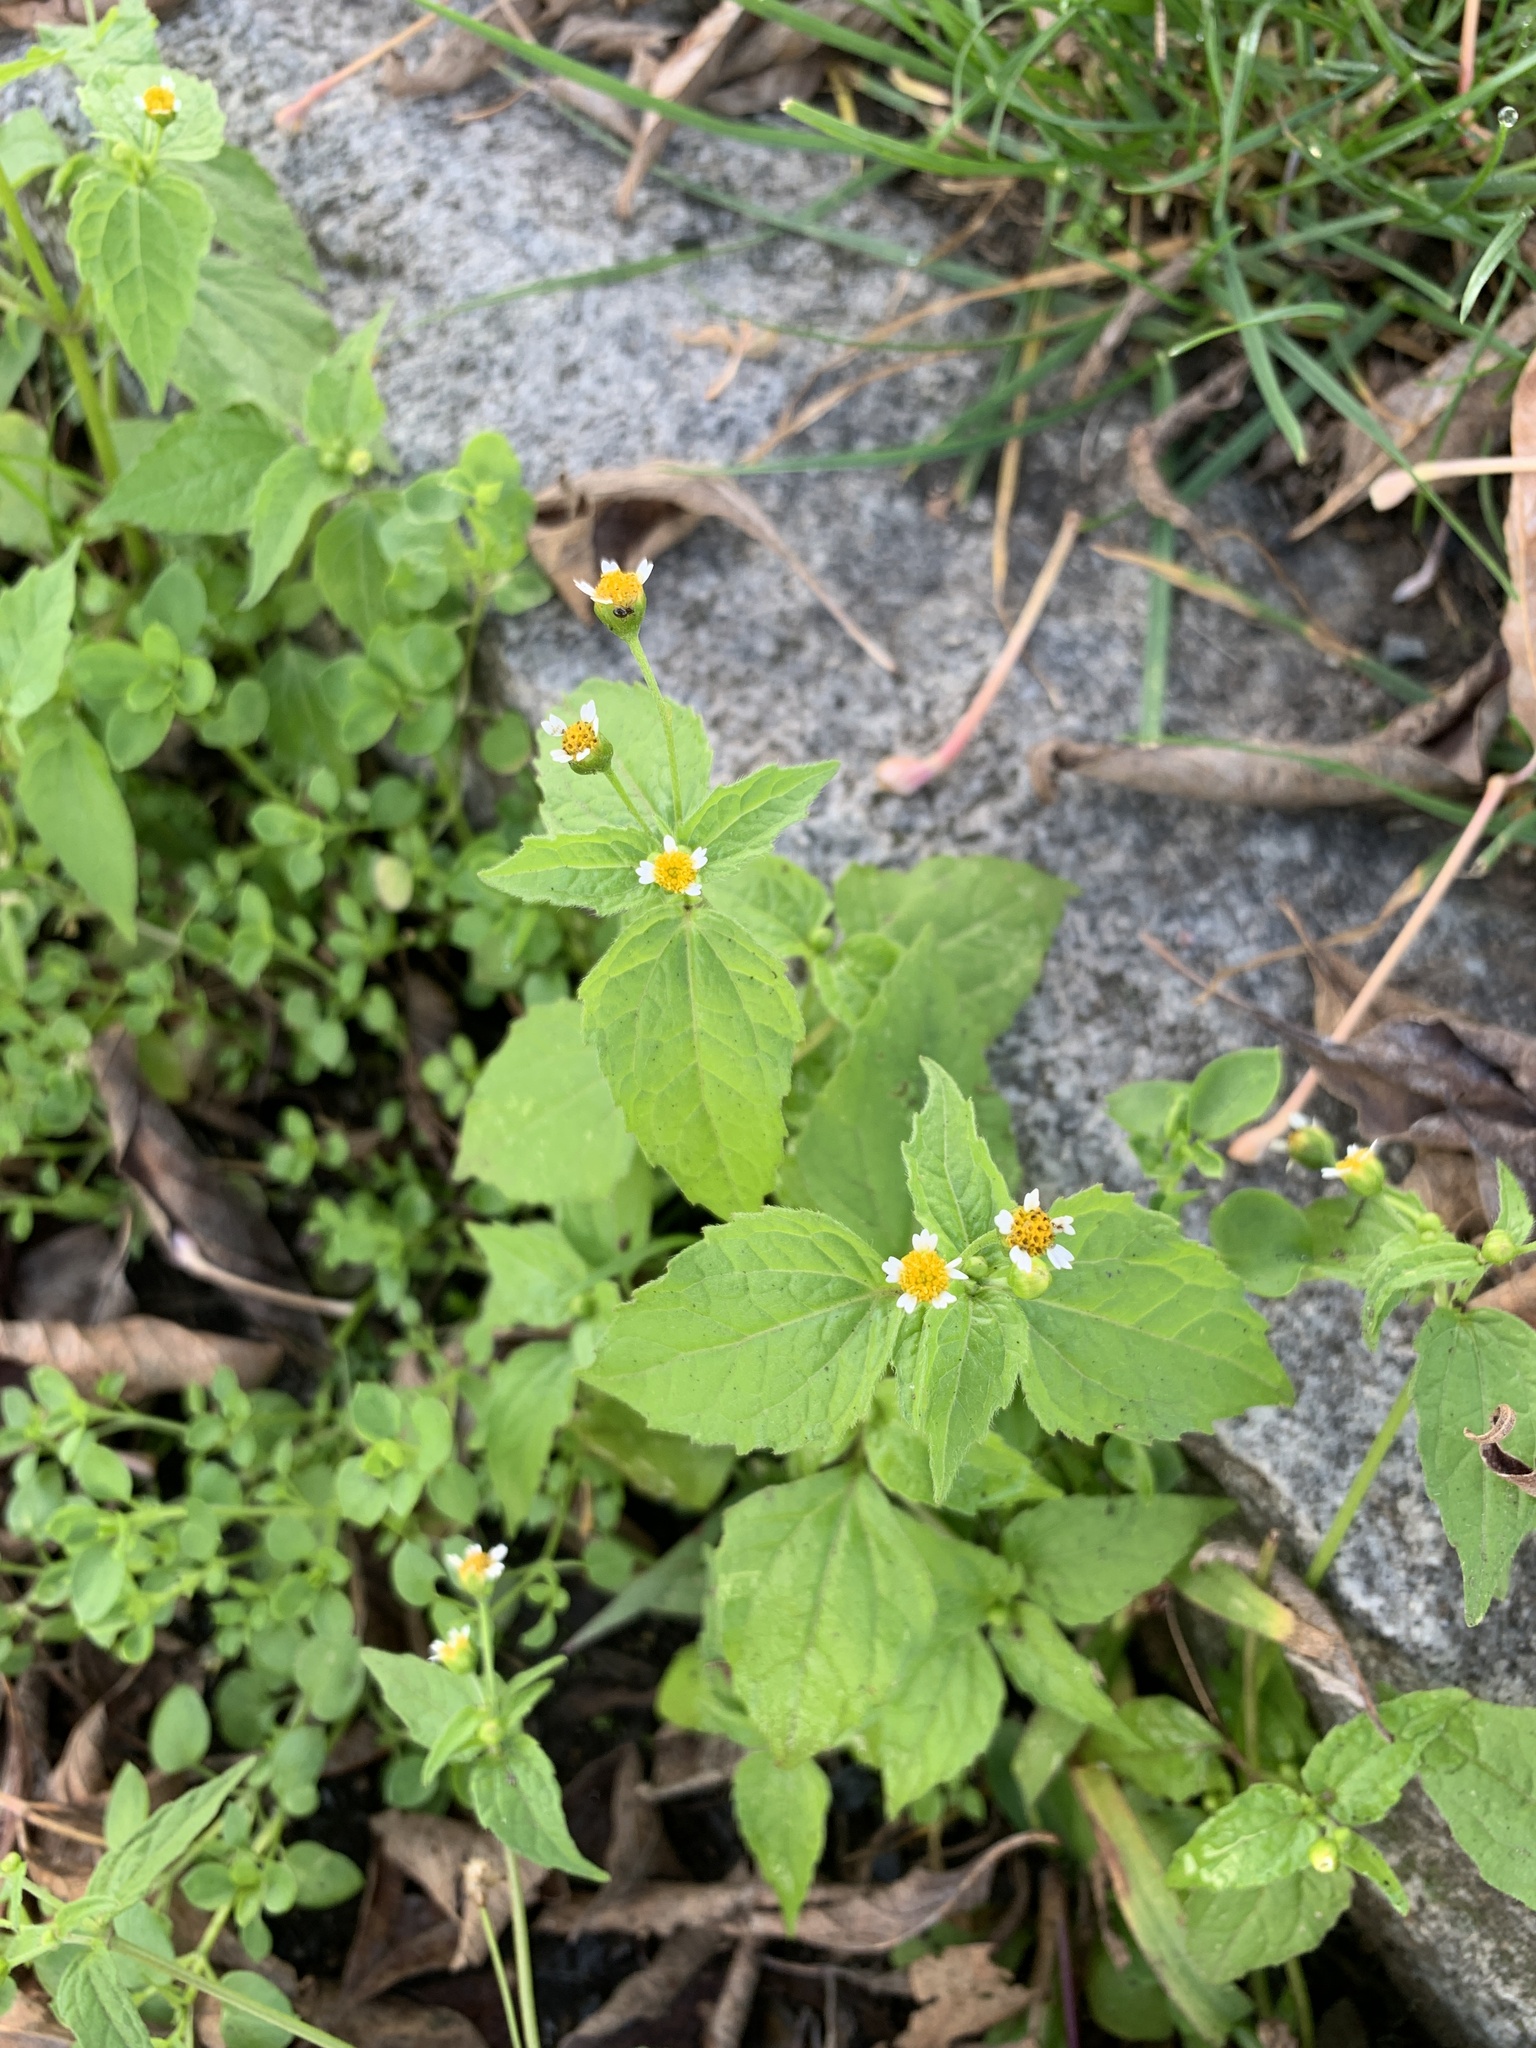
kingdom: Plantae
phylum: Tracheophyta
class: Magnoliopsida
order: Asterales
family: Asteraceae
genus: Galinsoga
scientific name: Galinsoga parviflora
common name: Gallant soldier
